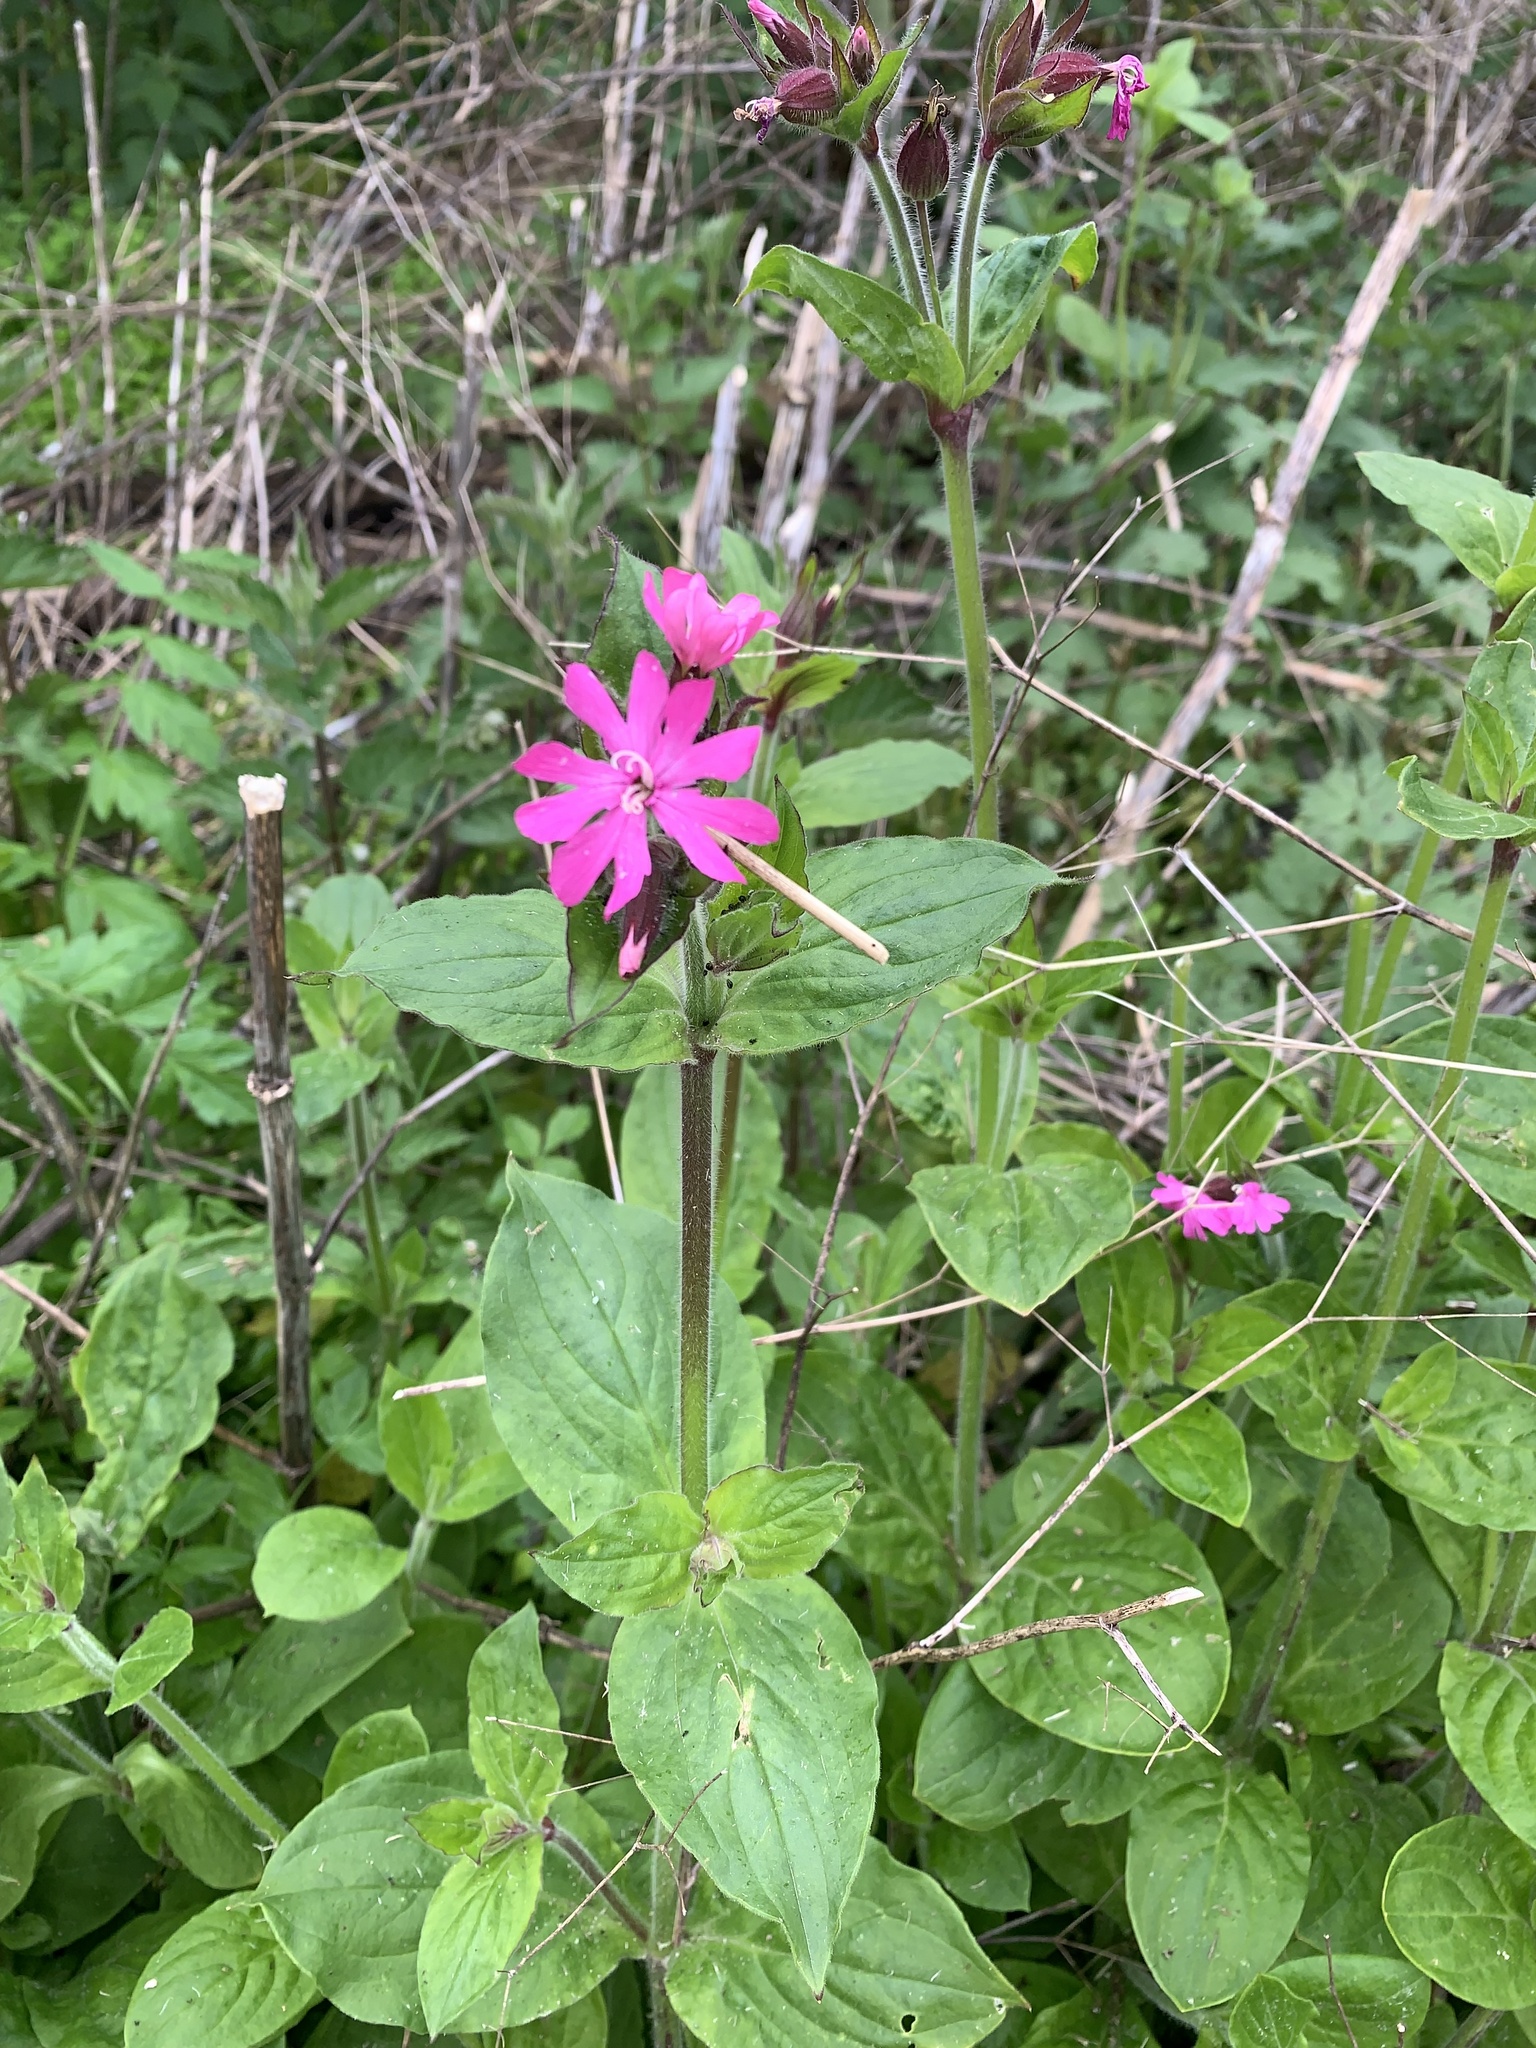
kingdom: Plantae
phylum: Tracheophyta
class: Magnoliopsida
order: Caryophyllales
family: Caryophyllaceae
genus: Silene
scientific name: Silene dioica
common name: Red campion
